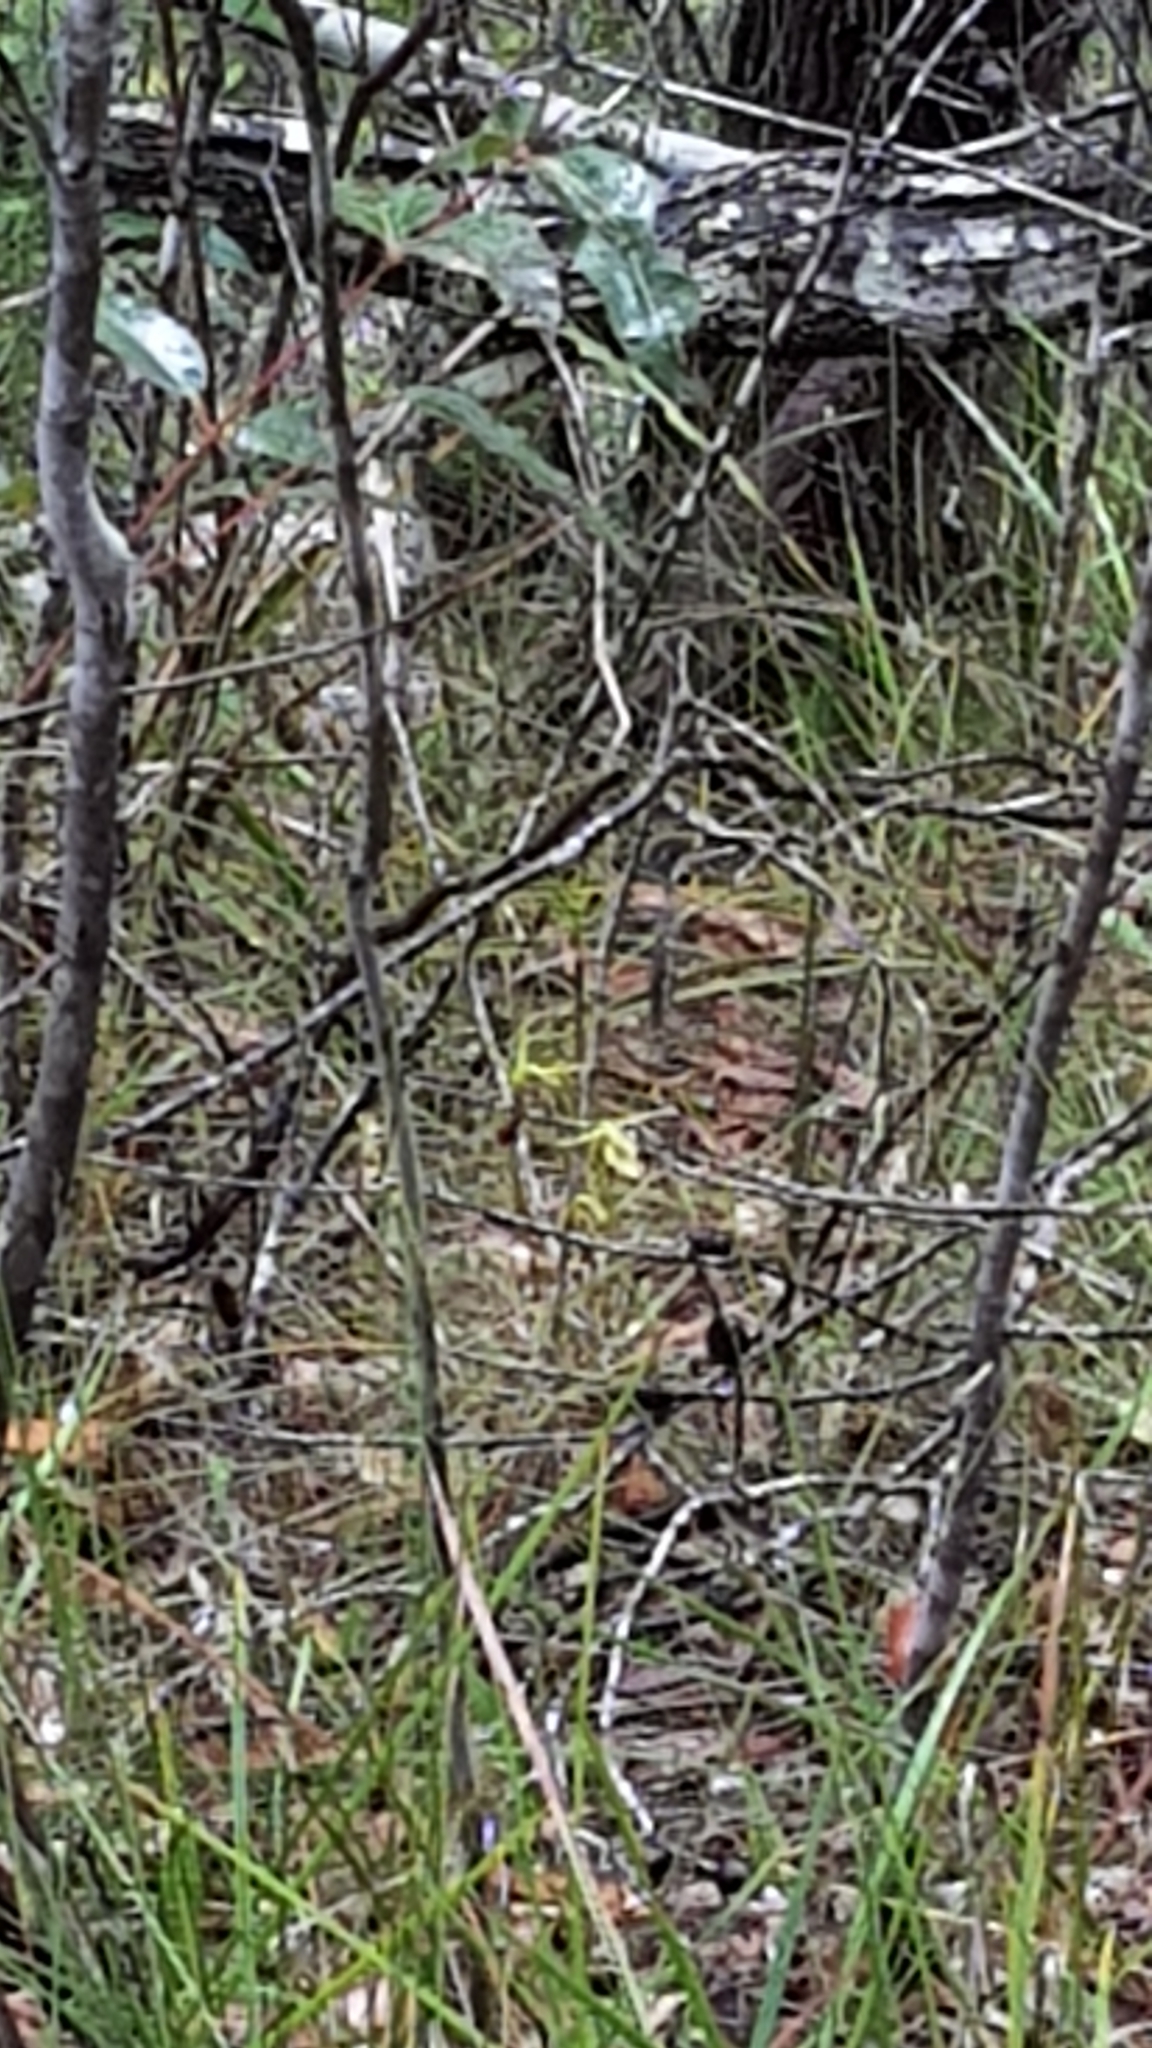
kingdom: Plantae
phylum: Tracheophyta
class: Liliopsida
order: Asparagales
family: Orchidaceae
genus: Cryptostylis
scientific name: Cryptostylis subulata
